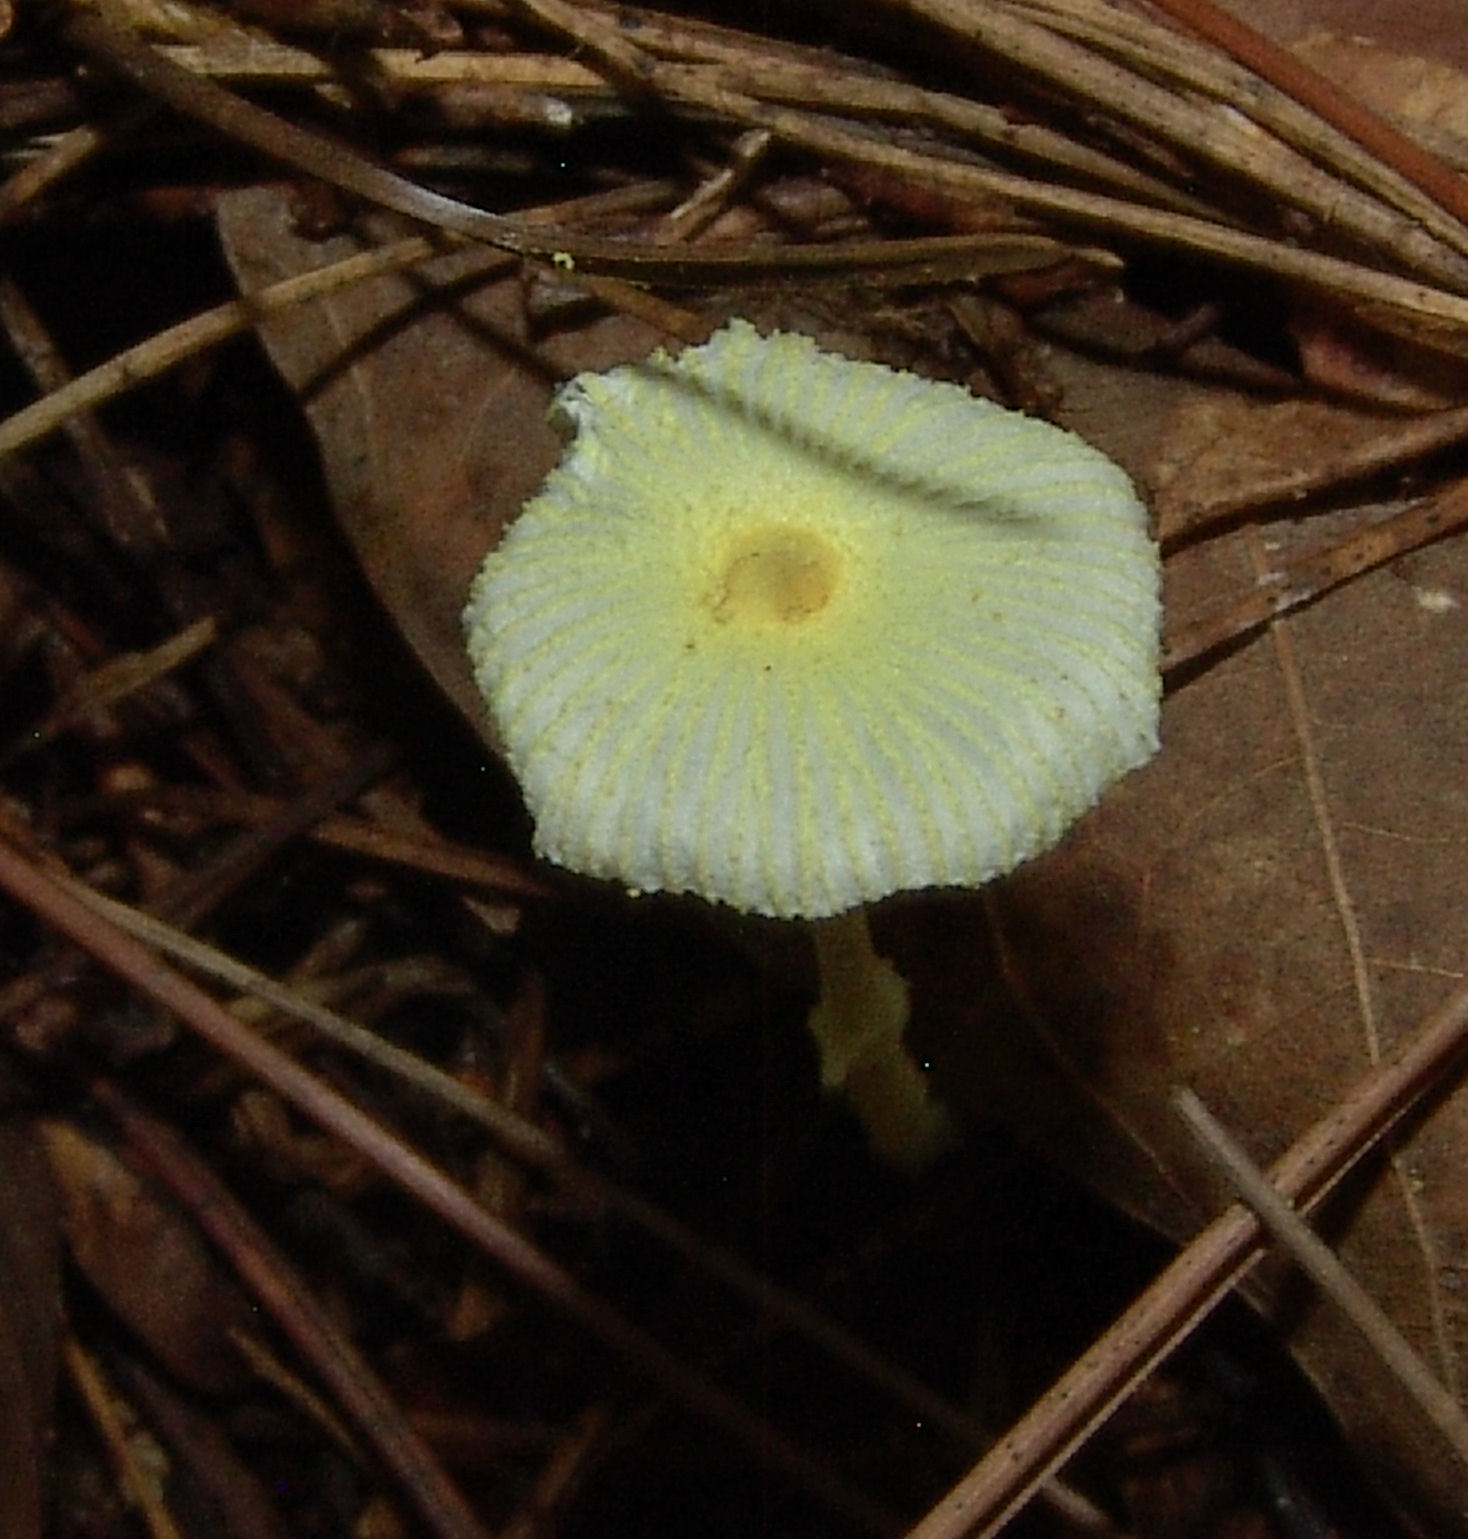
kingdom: Fungi
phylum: Basidiomycota
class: Agaricomycetes
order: Agaricales
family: Agaricaceae
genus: Leucocoprinus
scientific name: Leucocoprinus fragilissimus
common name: Fragile dapperling
